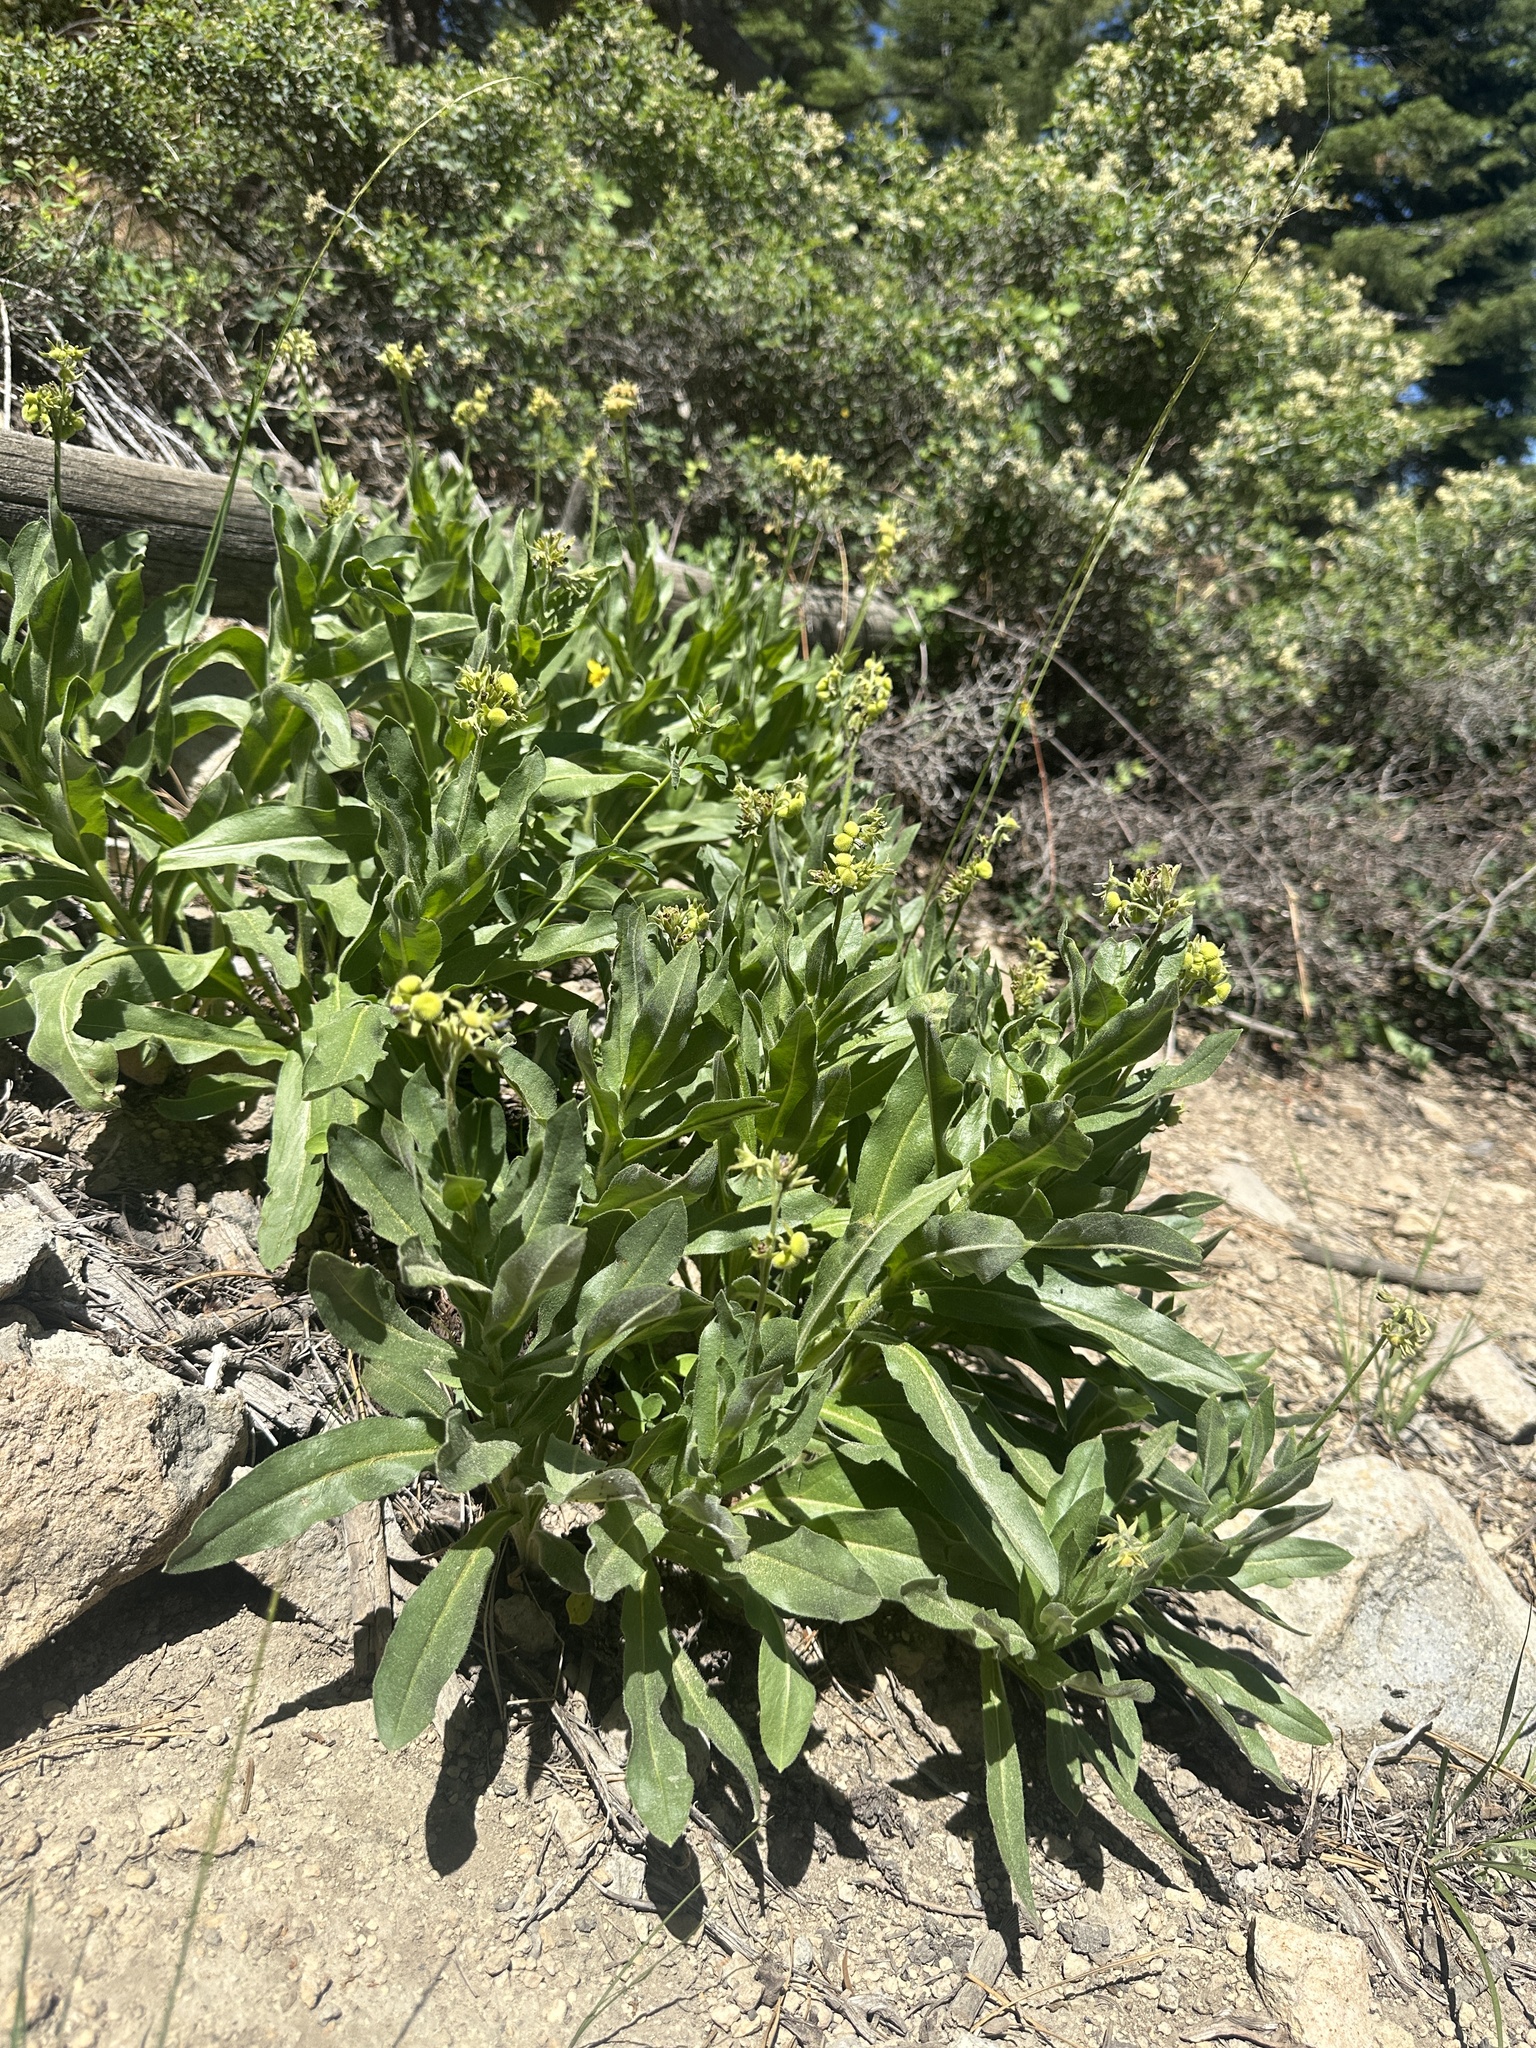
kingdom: Plantae
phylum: Tracheophyta
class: Magnoliopsida
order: Boraginales
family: Boraginaceae
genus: Andersonglossum
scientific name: Andersonglossum occidentale
